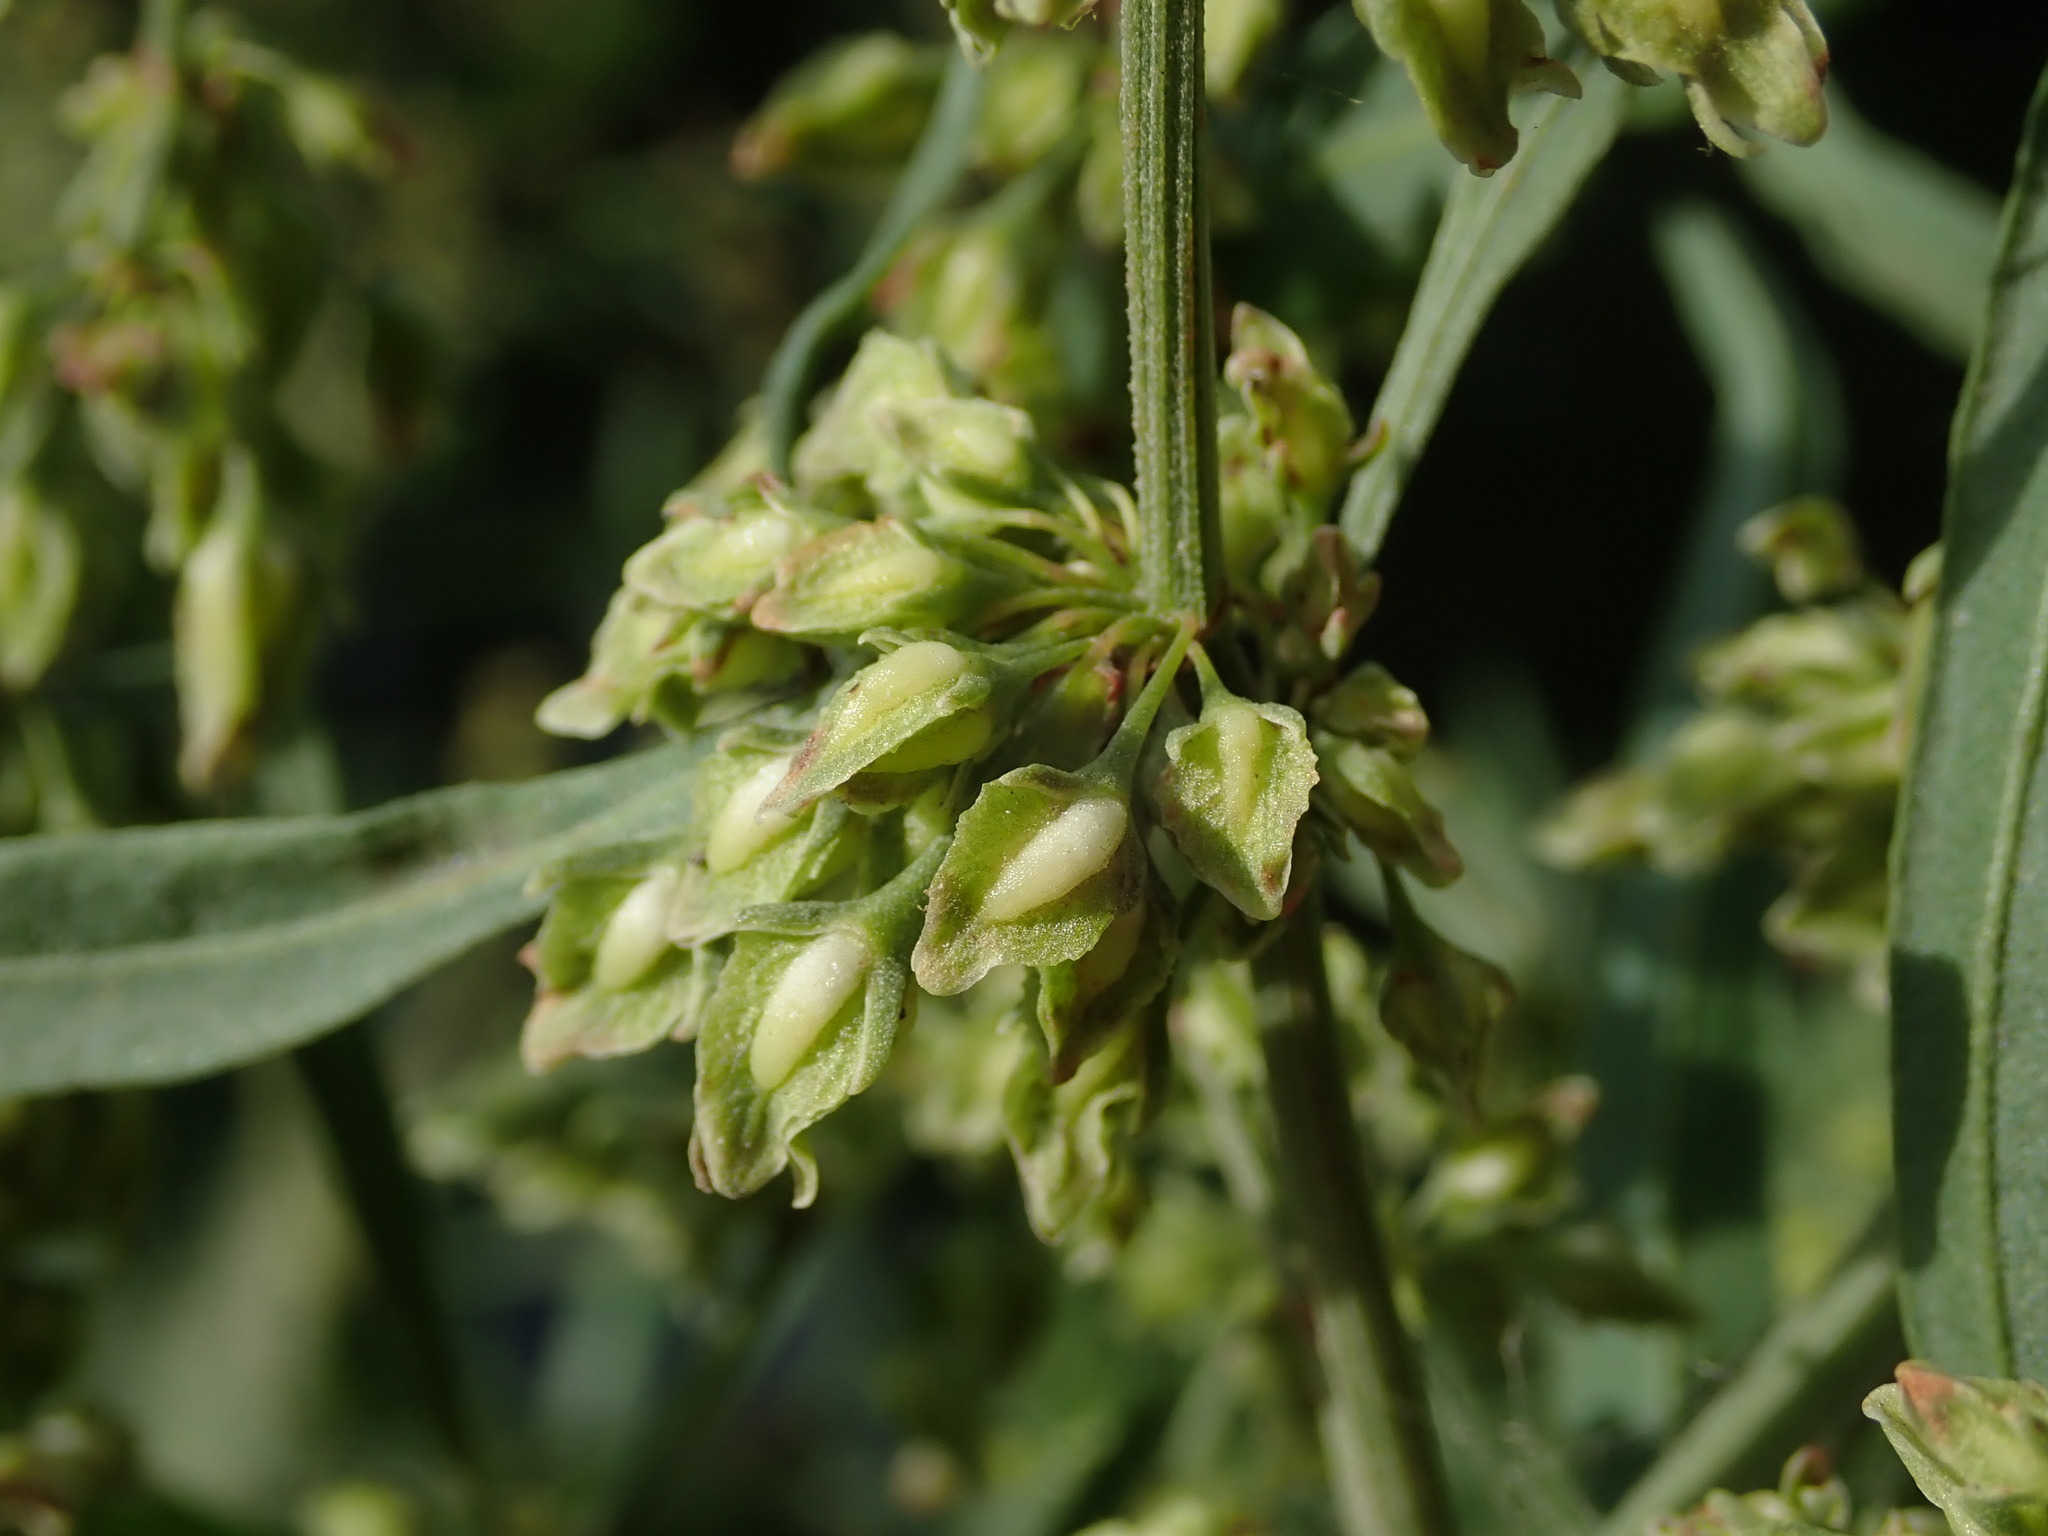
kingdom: Plantae
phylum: Tracheophyta
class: Magnoliopsida
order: Caryophyllales
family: Polygonaceae
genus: Rumex
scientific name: Rumex hydrolapathum
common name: Water dock
